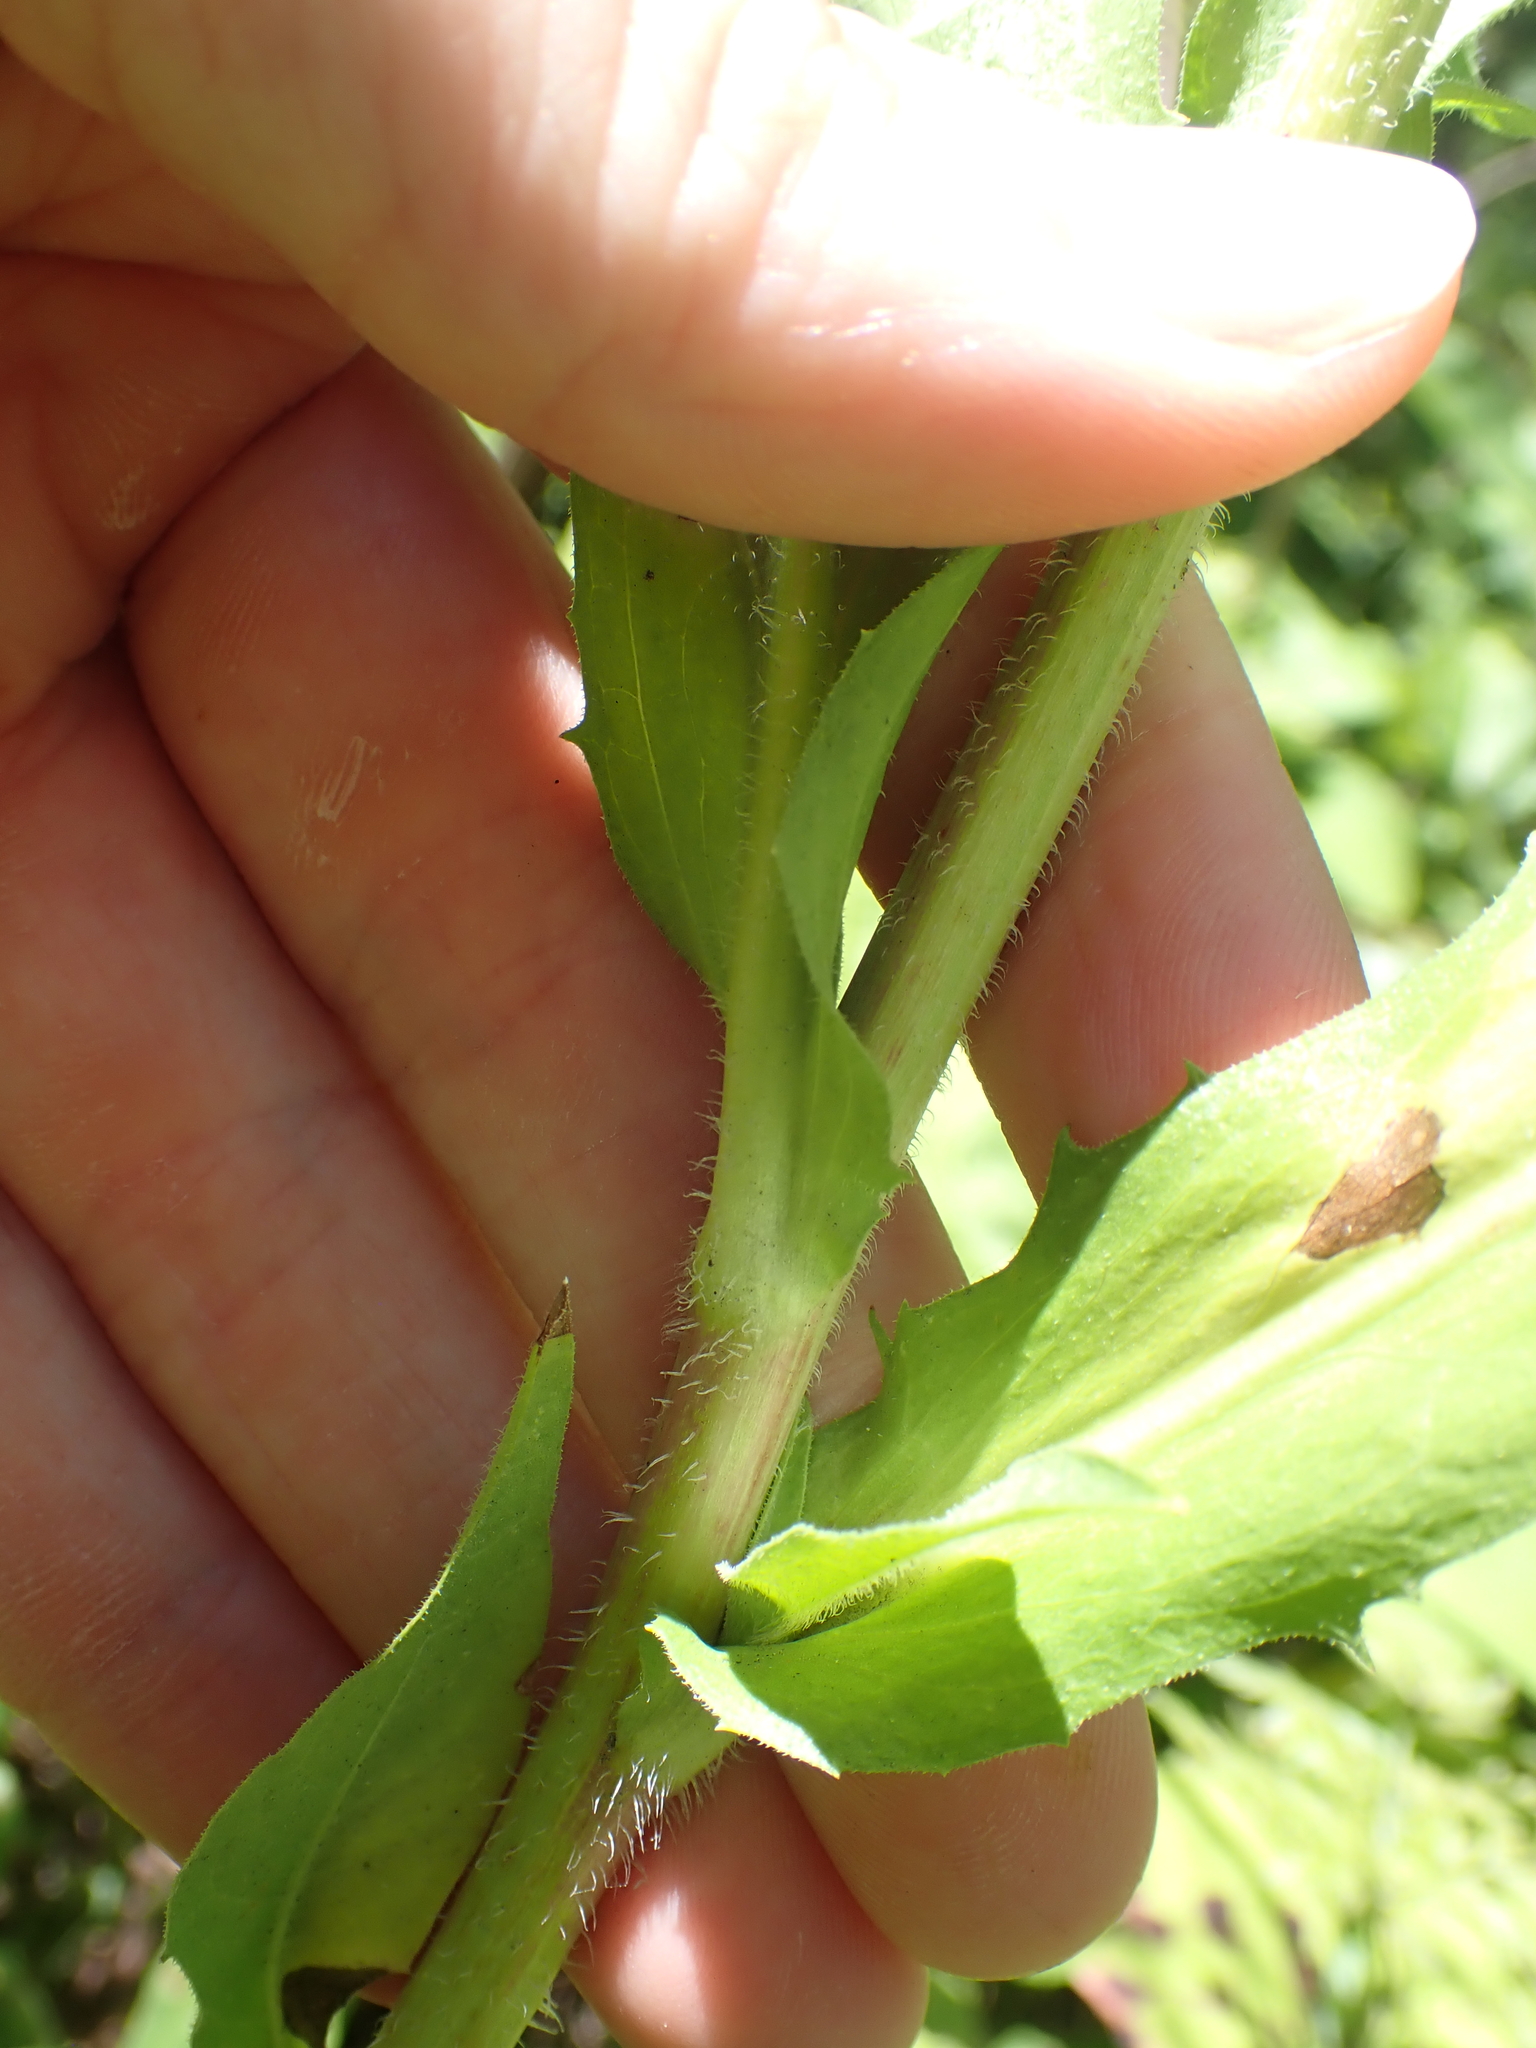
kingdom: Plantae
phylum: Tracheophyta
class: Magnoliopsida
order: Asterales
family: Asteraceae
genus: Cichorium
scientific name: Cichorium intybus
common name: Chicory
